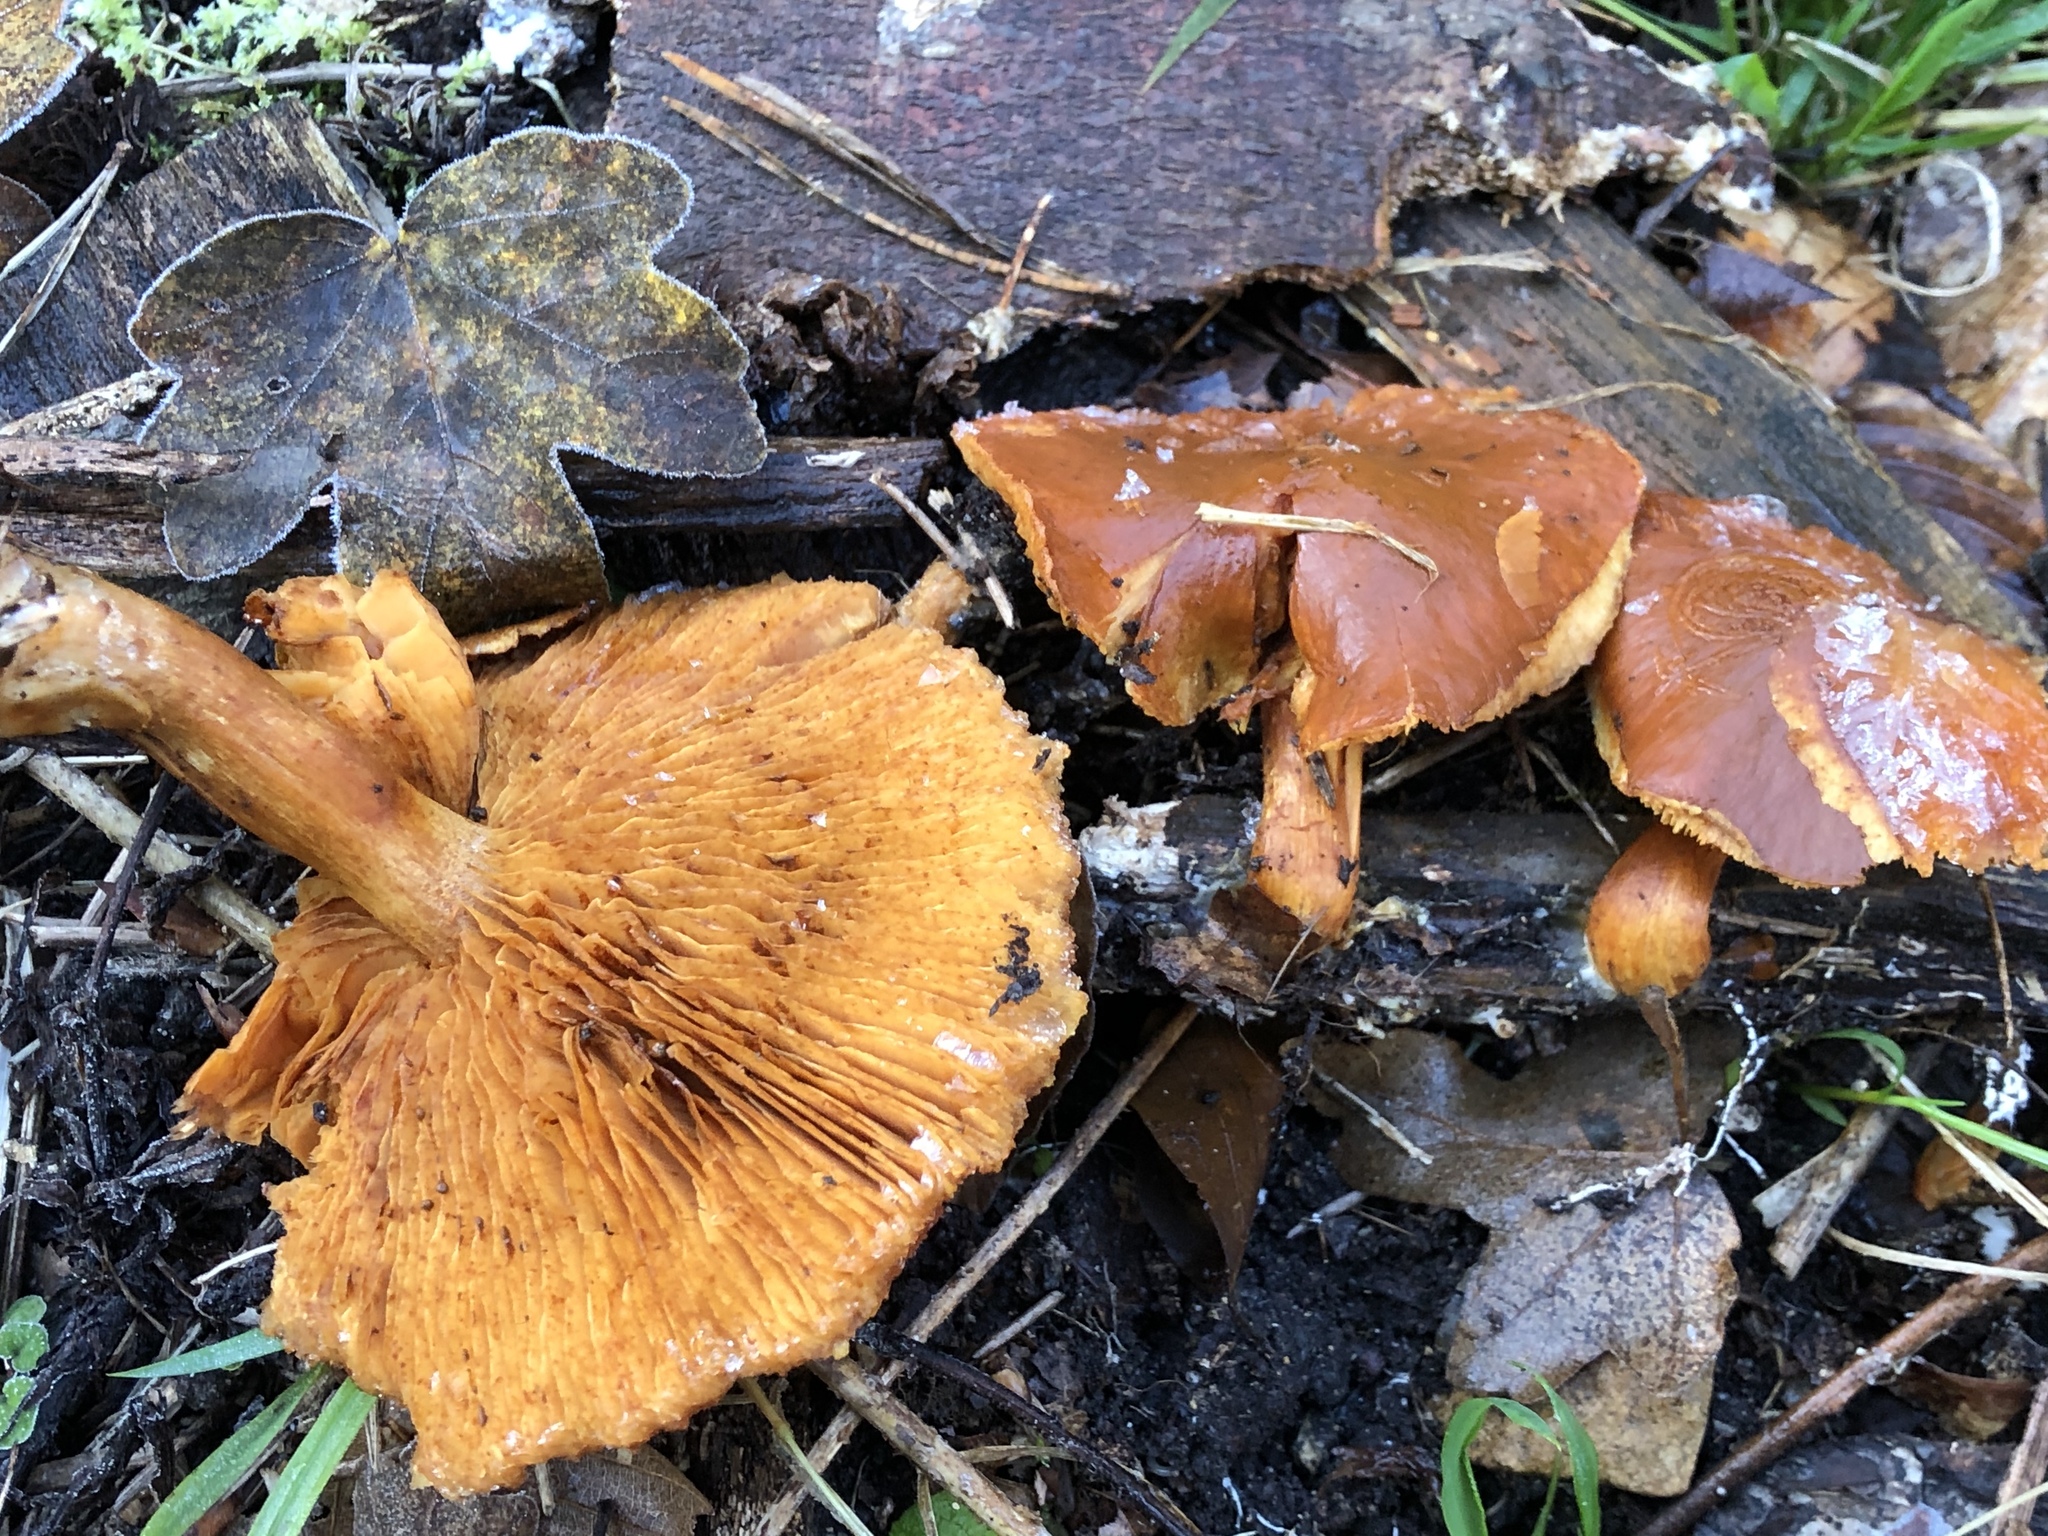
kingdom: Fungi
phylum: Basidiomycota
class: Agaricomycetes
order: Agaricales
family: Hymenogastraceae
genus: Gymnopilus
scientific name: Gymnopilus penetrans
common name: Common rustgill
